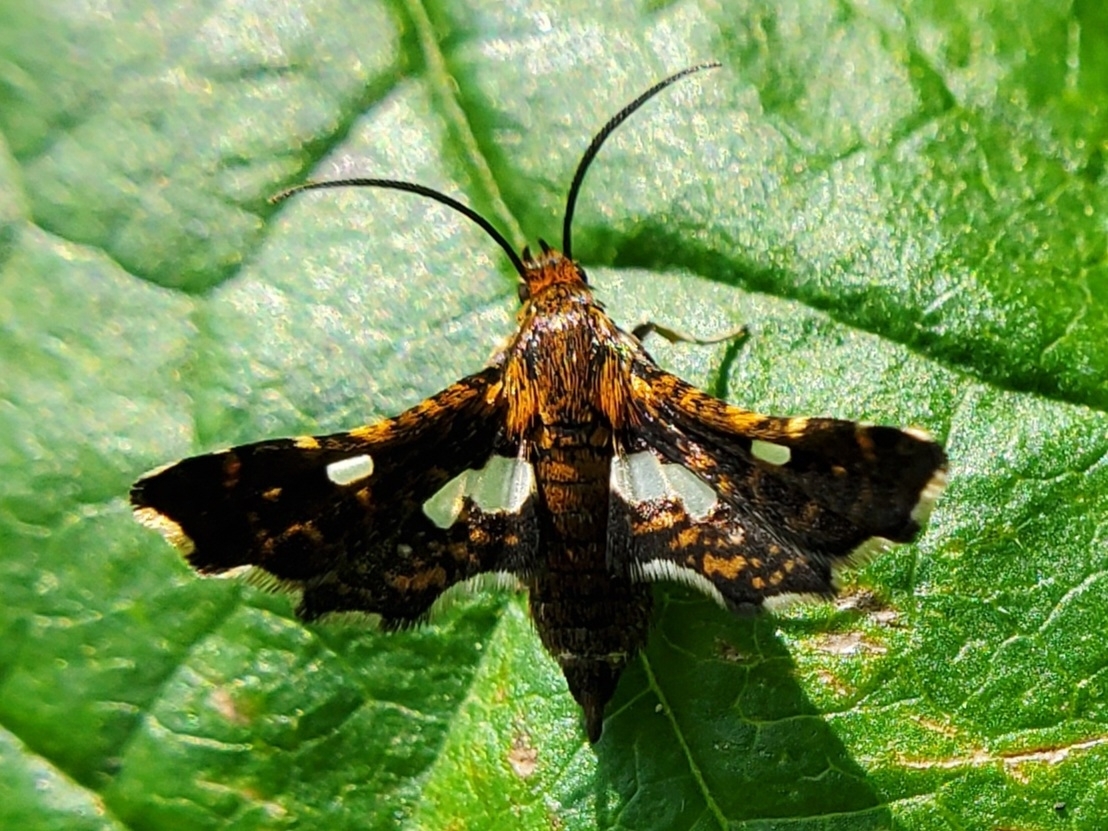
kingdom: Animalia
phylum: Arthropoda
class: Insecta
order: Lepidoptera
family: Thyrididae
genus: Thyris
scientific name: Thyris maculata
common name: Spotted thyris moth
